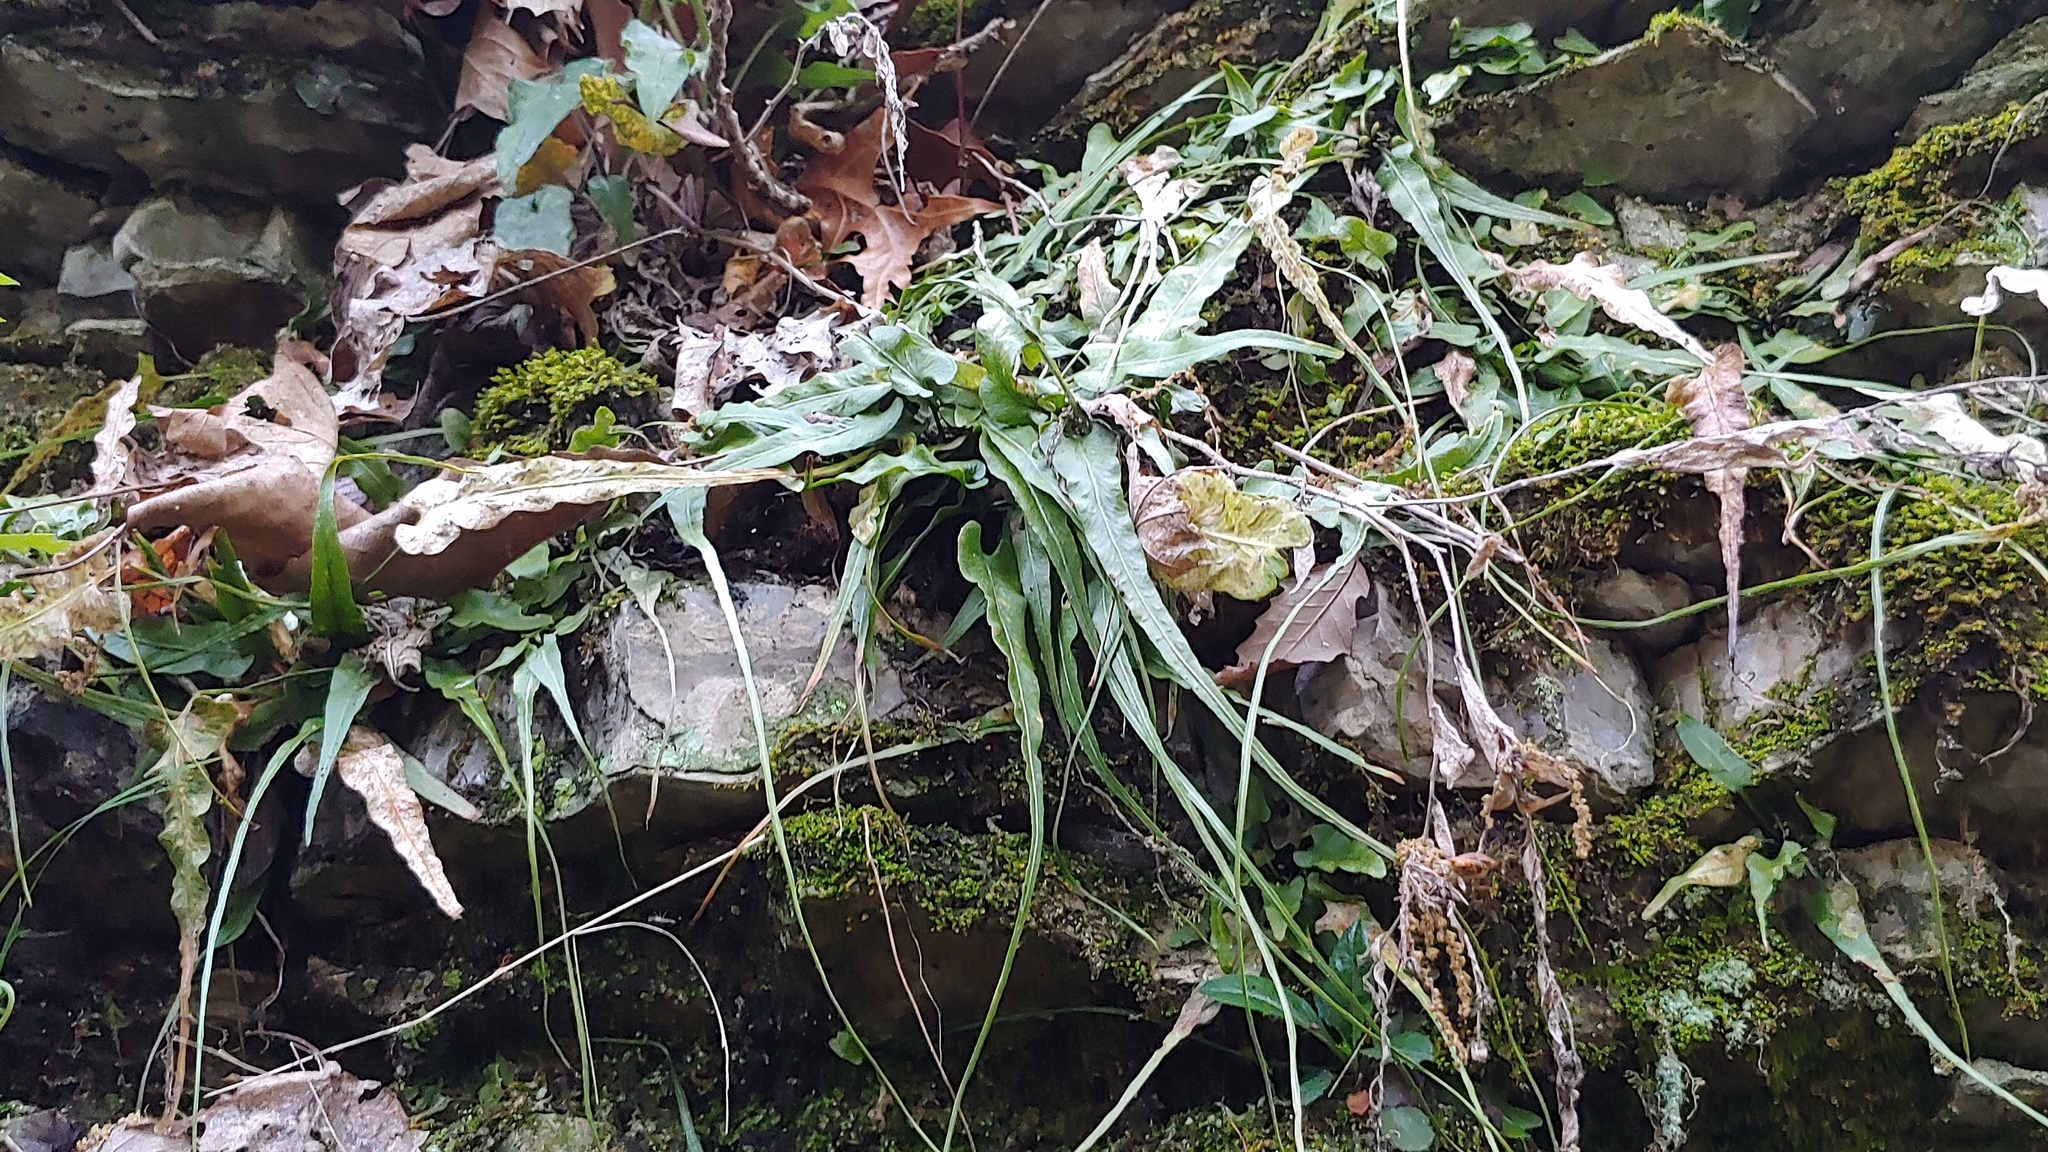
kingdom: Plantae
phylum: Tracheophyta
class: Polypodiopsida
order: Polypodiales
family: Aspleniaceae
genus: Asplenium
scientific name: Asplenium rhizophyllum
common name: Walking fern
